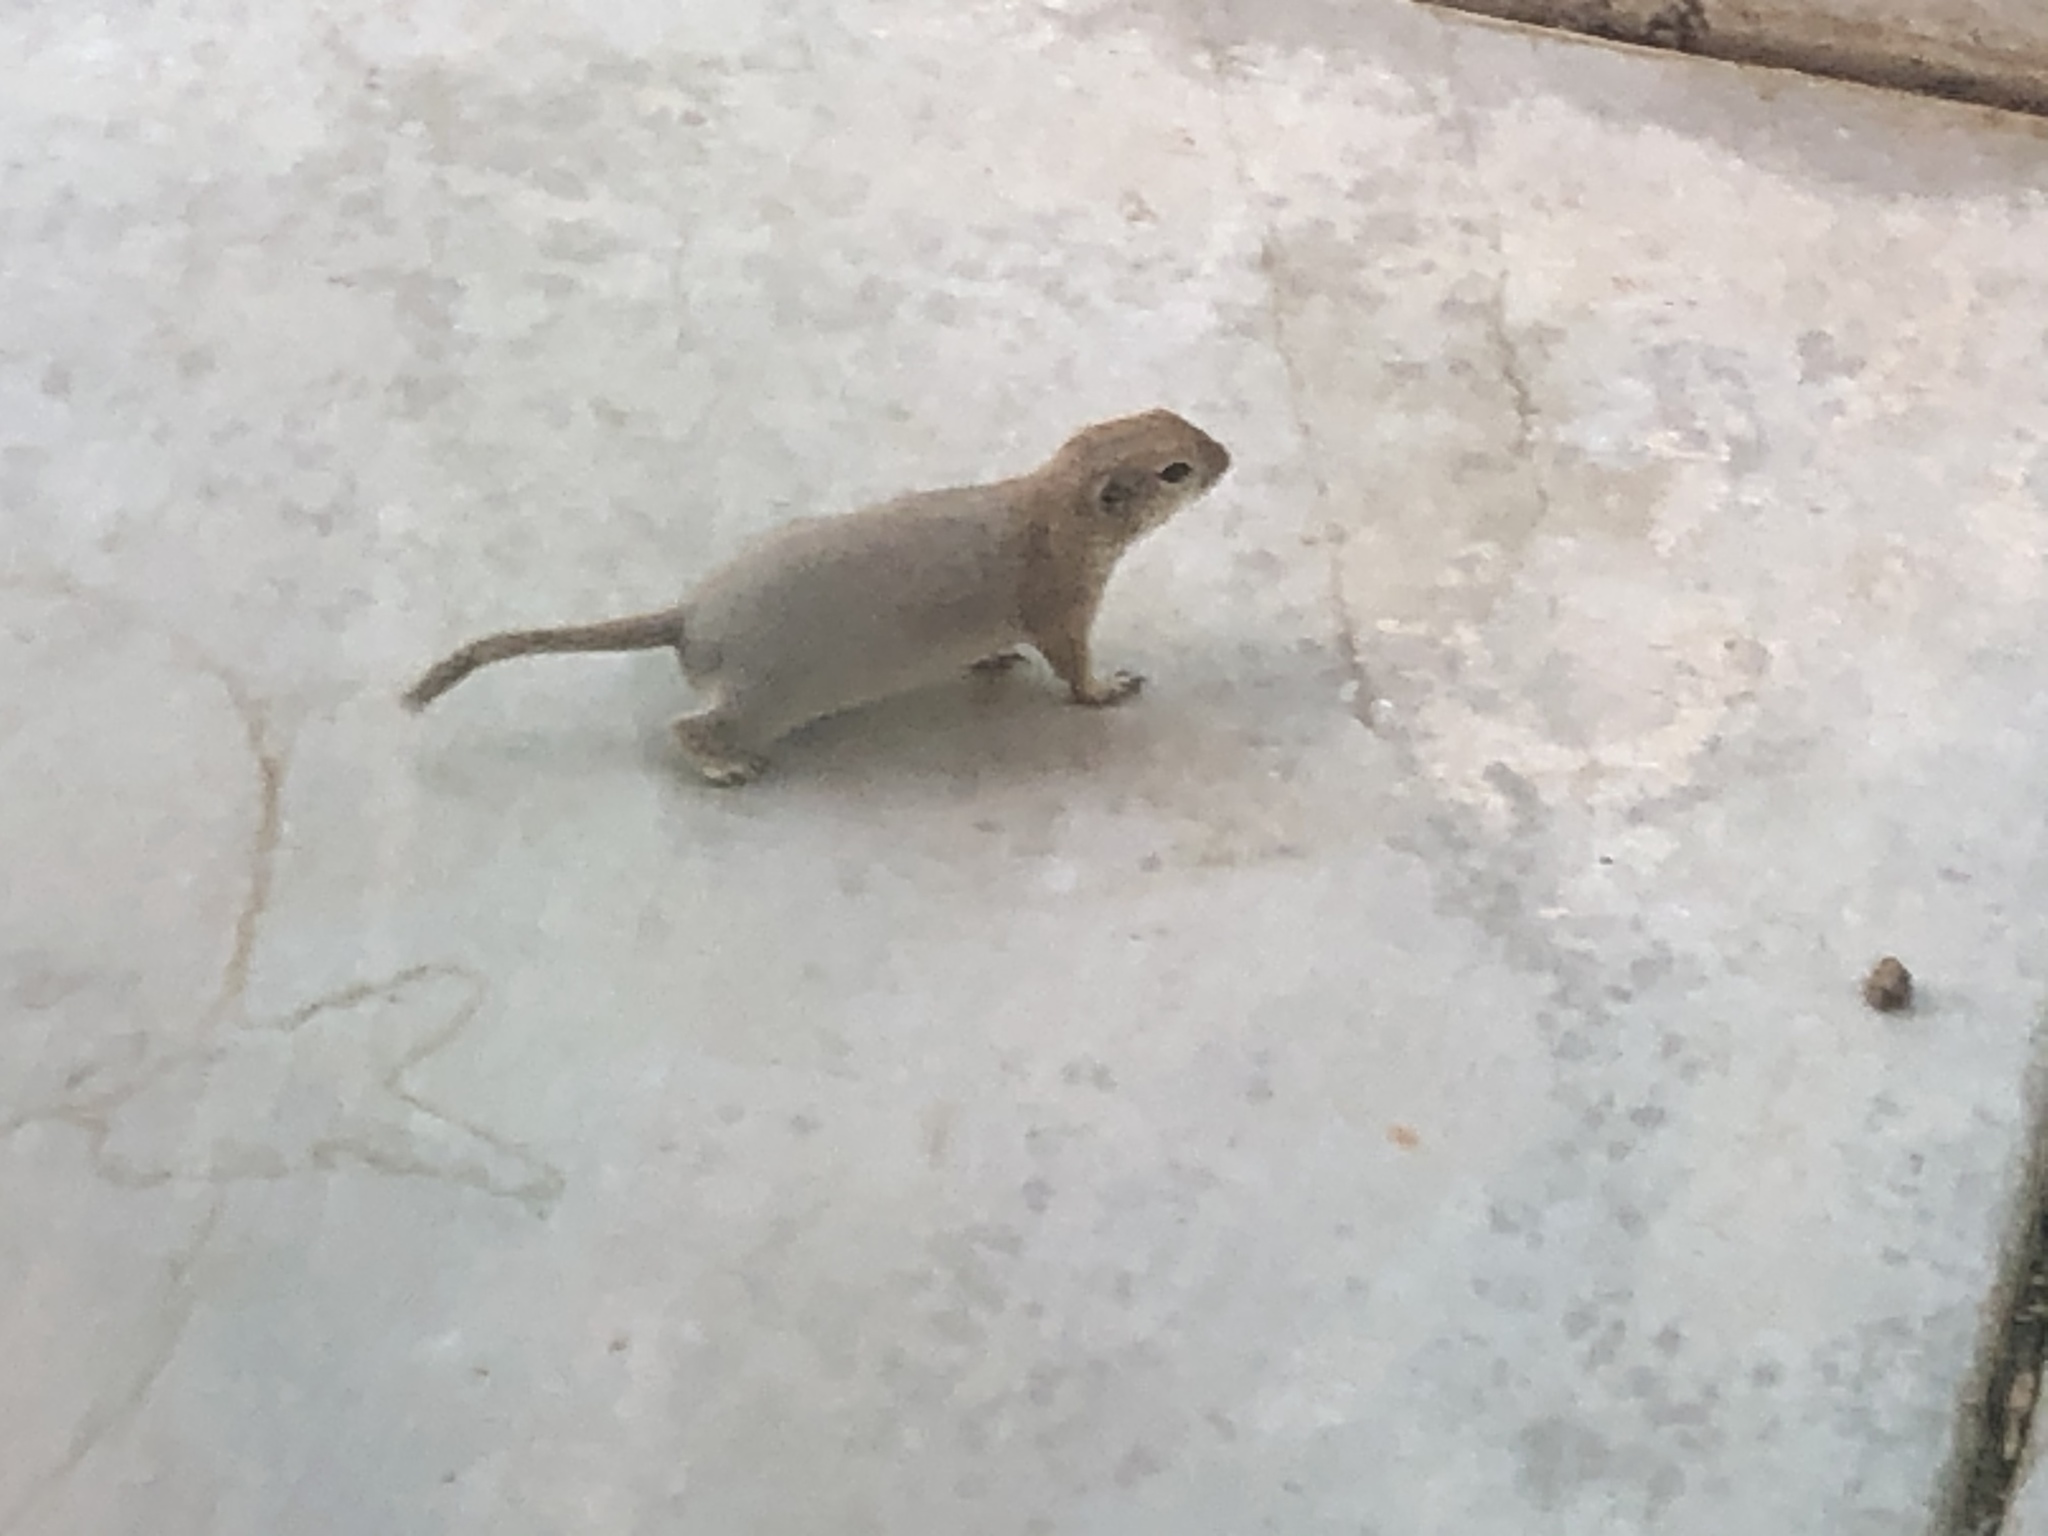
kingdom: Animalia
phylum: Chordata
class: Mammalia
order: Rodentia
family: Sciuridae
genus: Xerospermophilus
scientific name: Xerospermophilus tereticaudus
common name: Round-tailed ground squirrel
